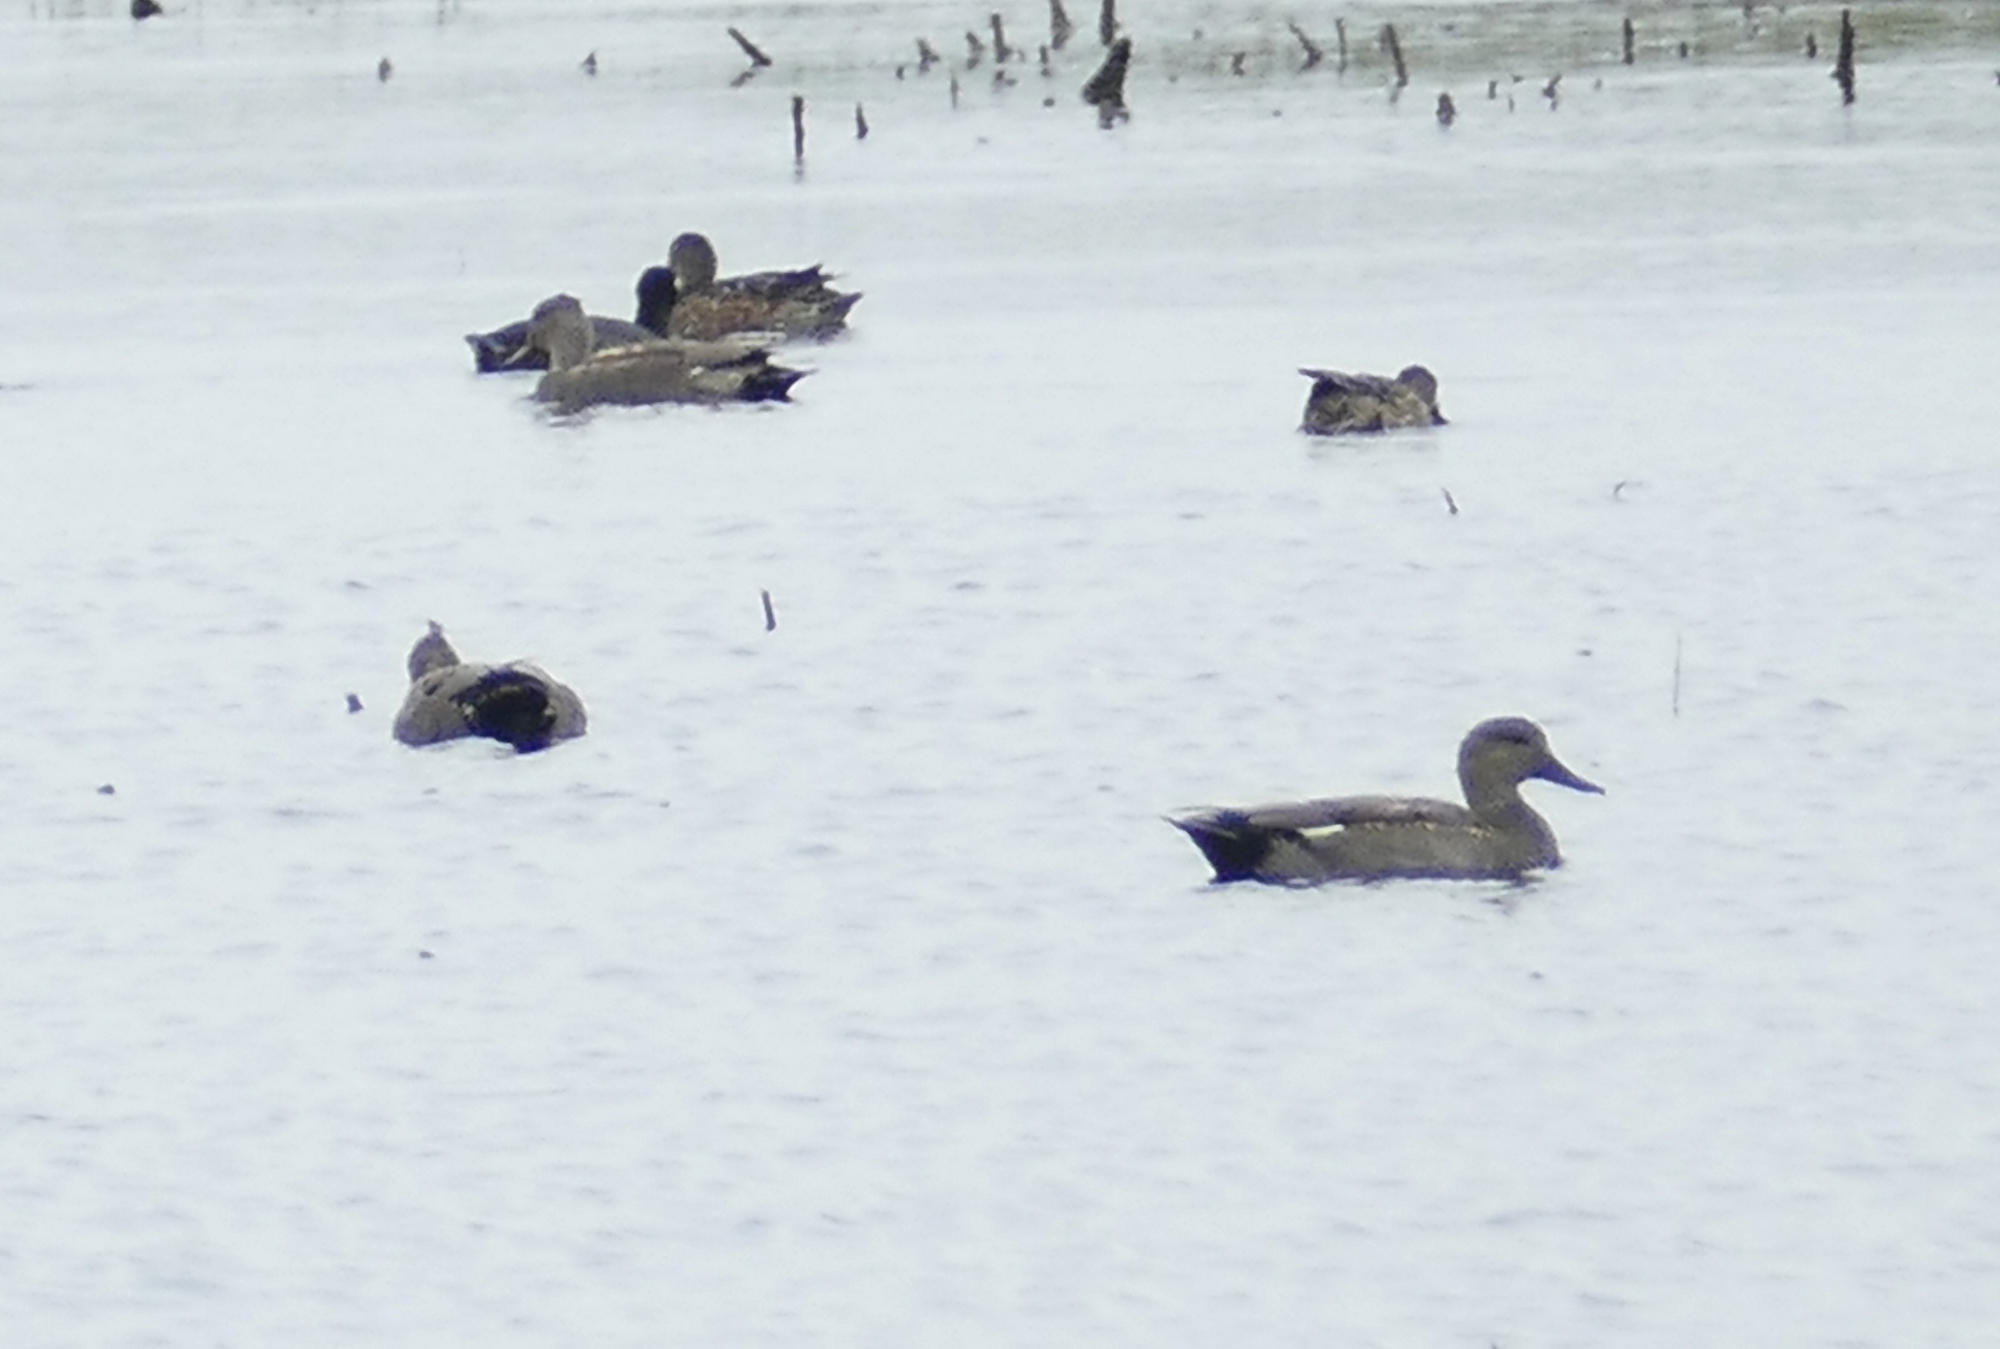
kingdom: Animalia
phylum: Chordata
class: Aves
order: Anseriformes
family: Anatidae
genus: Mareca
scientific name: Mareca strepera
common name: Gadwall
